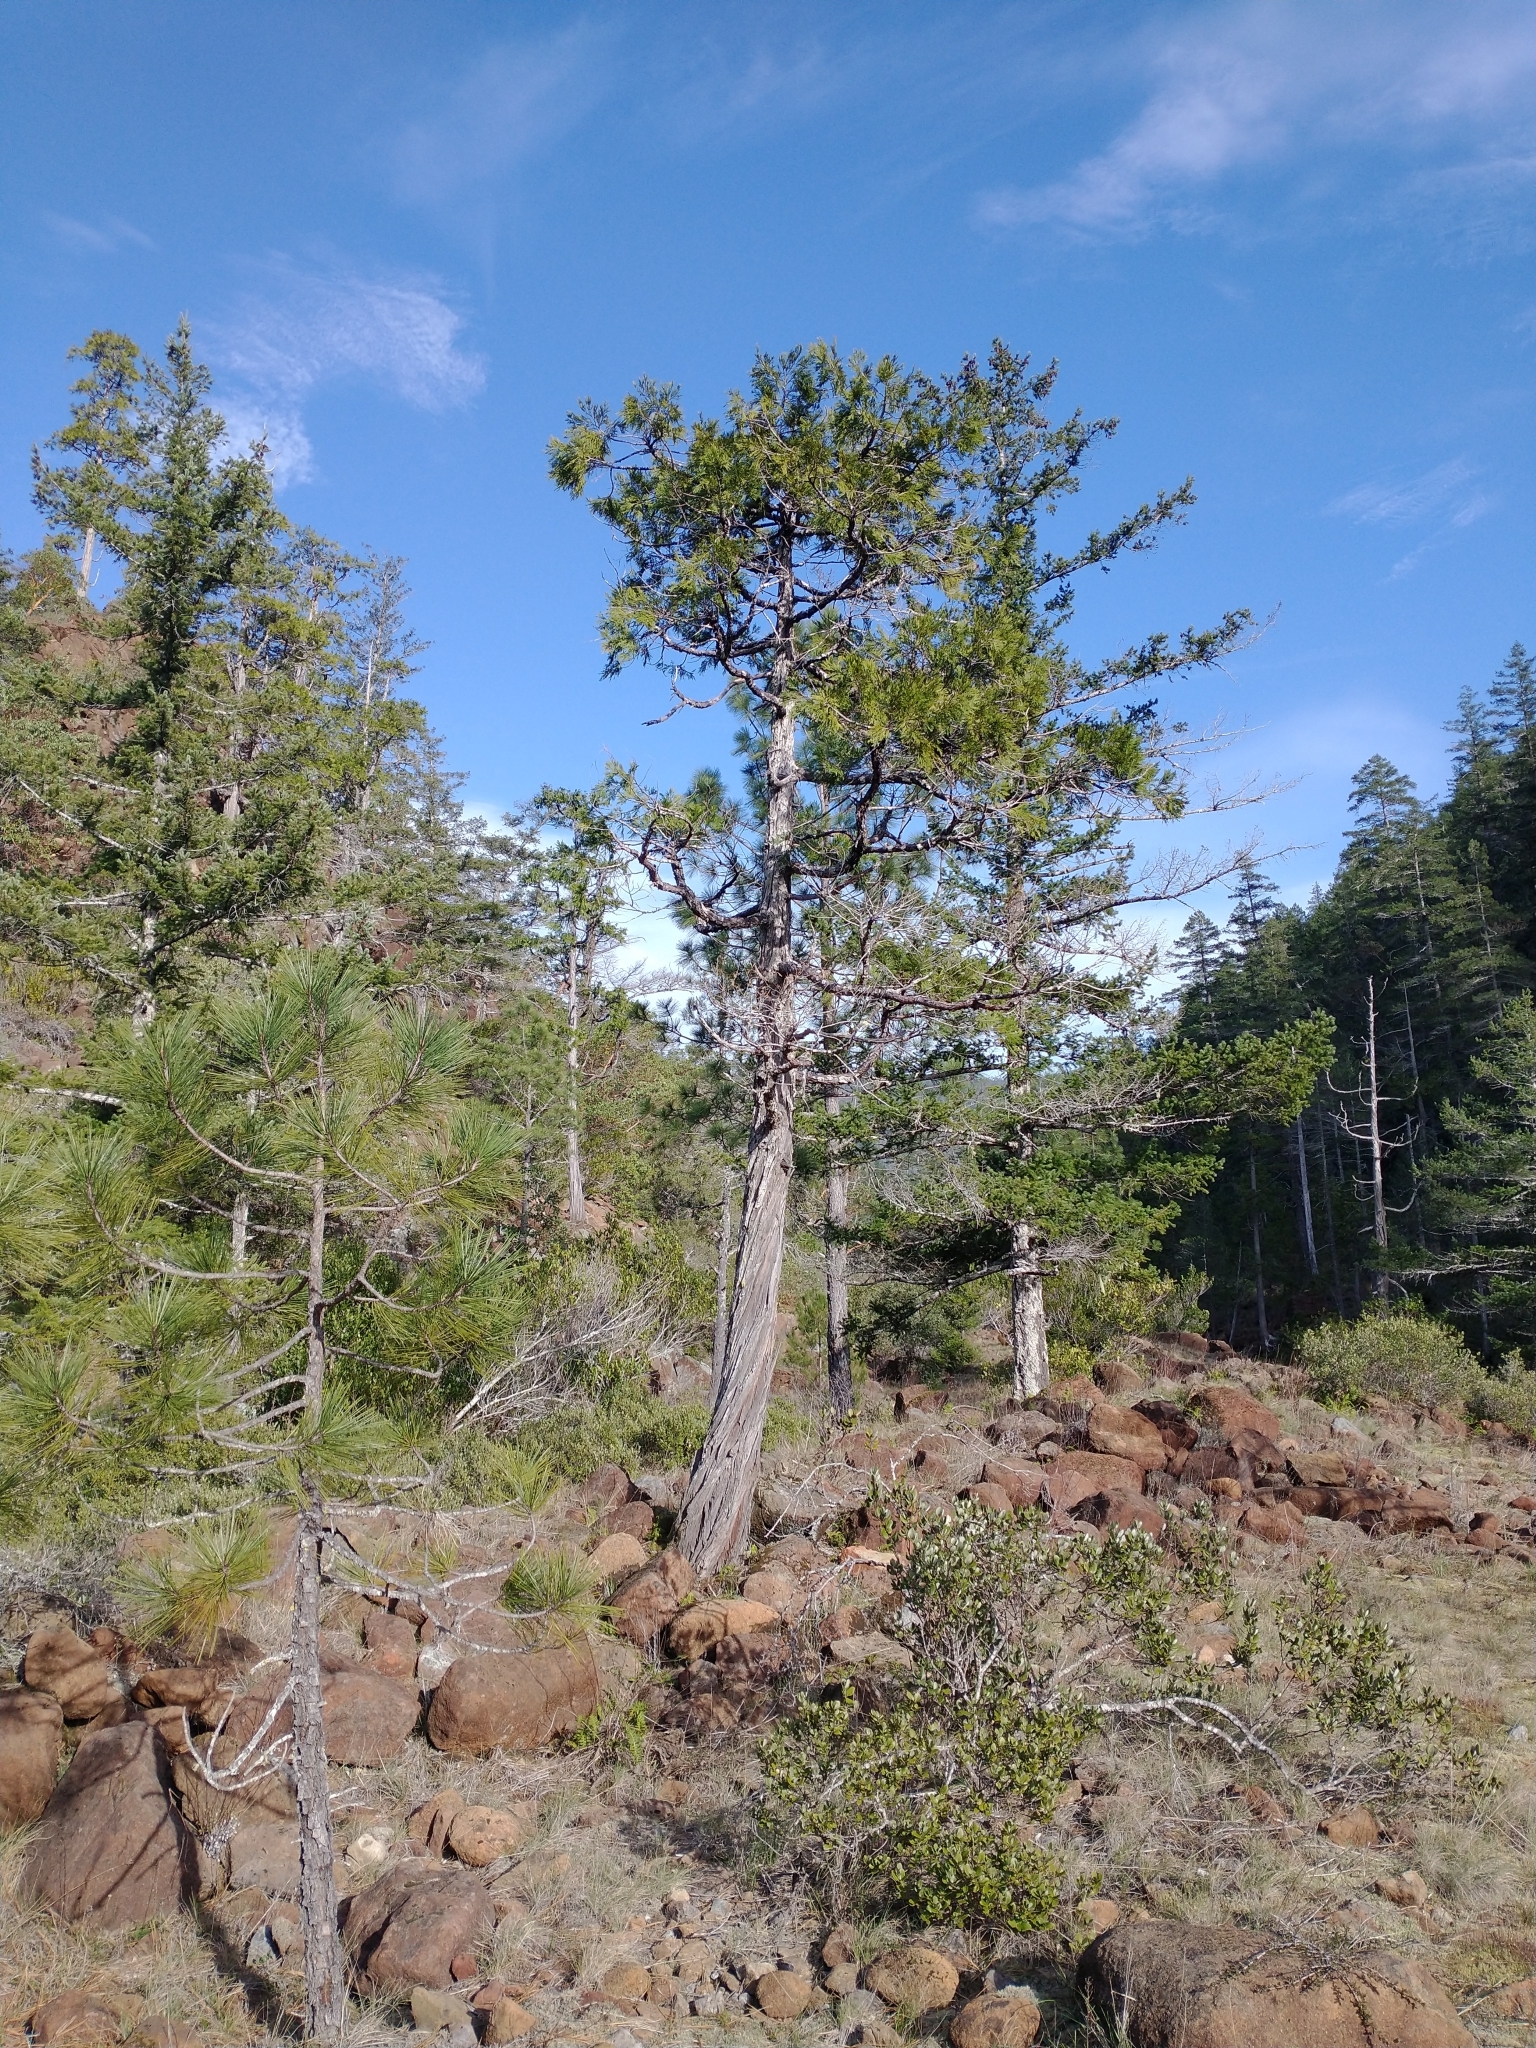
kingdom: Plantae
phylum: Tracheophyta
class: Pinopsida
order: Pinales
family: Cupressaceae
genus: Calocedrus
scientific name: Calocedrus decurrens
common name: Californian incense-cedar
